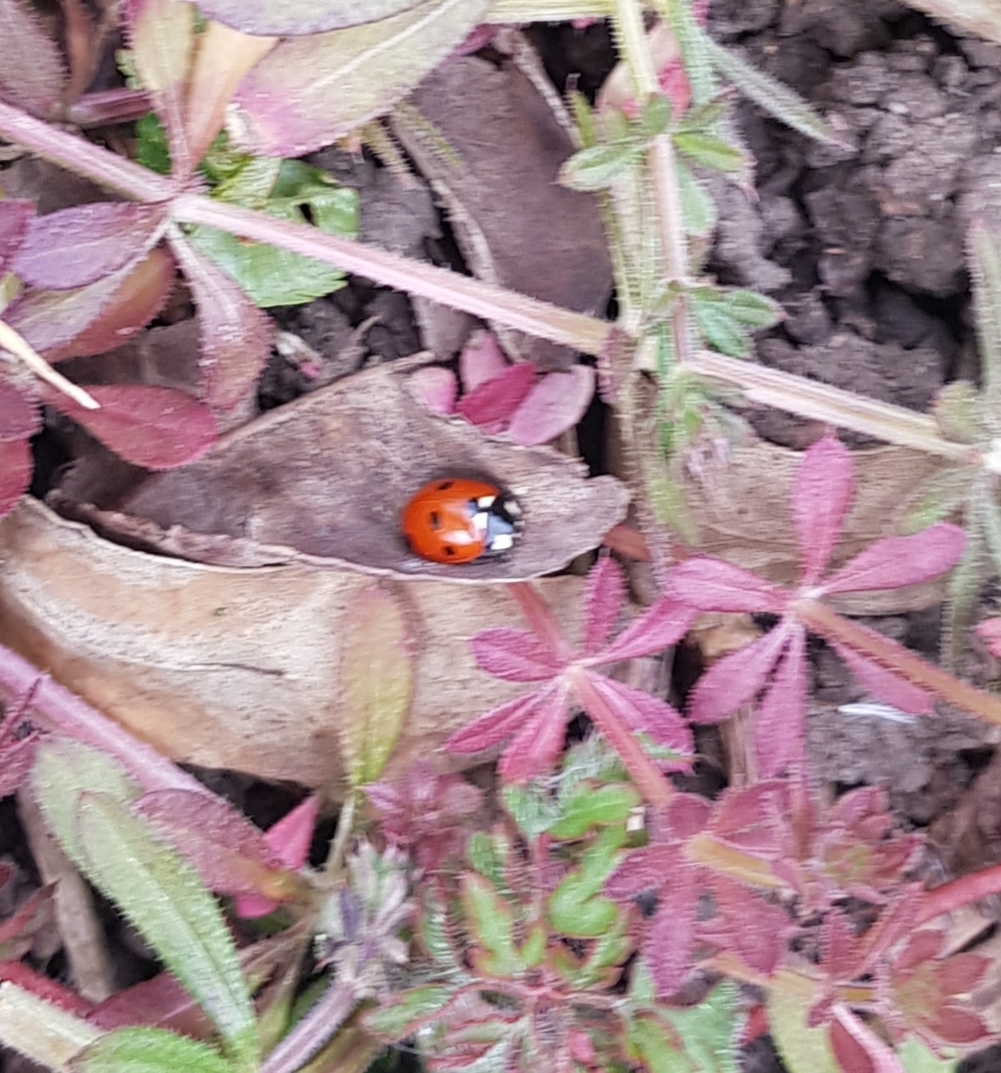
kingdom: Animalia
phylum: Arthropoda
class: Insecta
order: Coleoptera
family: Coccinellidae
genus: Coccinella
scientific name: Coccinella septempunctata
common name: Sevenspotted lady beetle
